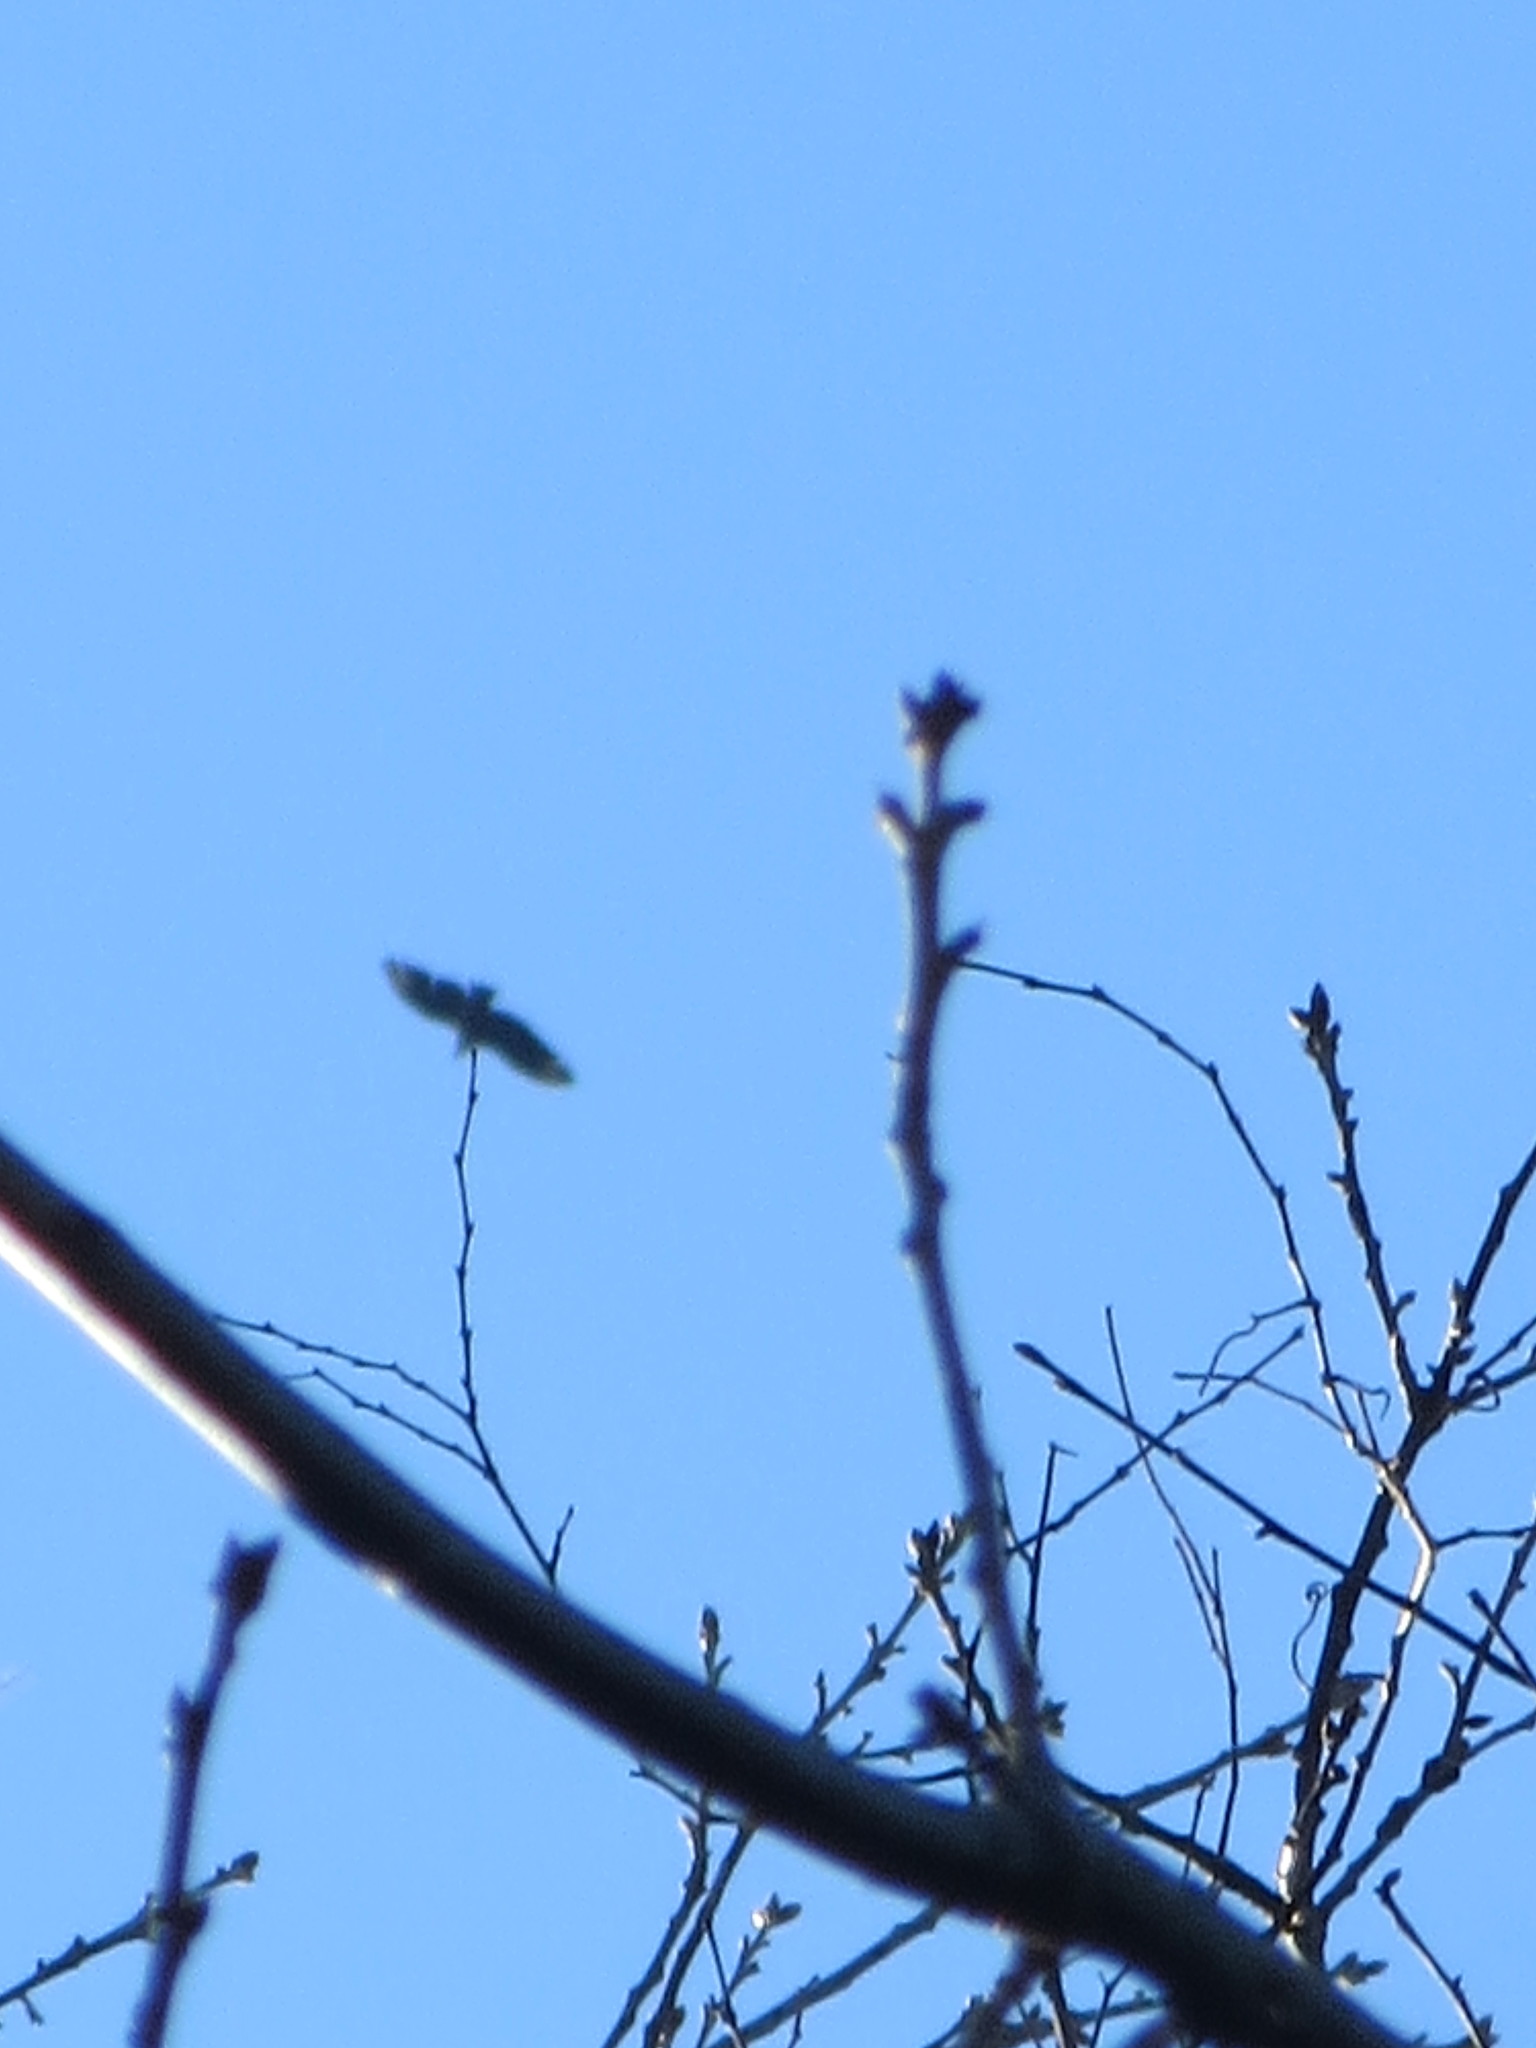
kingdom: Animalia
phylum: Chordata
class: Aves
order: Accipitriformes
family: Cathartidae
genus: Coragyps
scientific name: Coragyps atratus
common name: Black vulture
